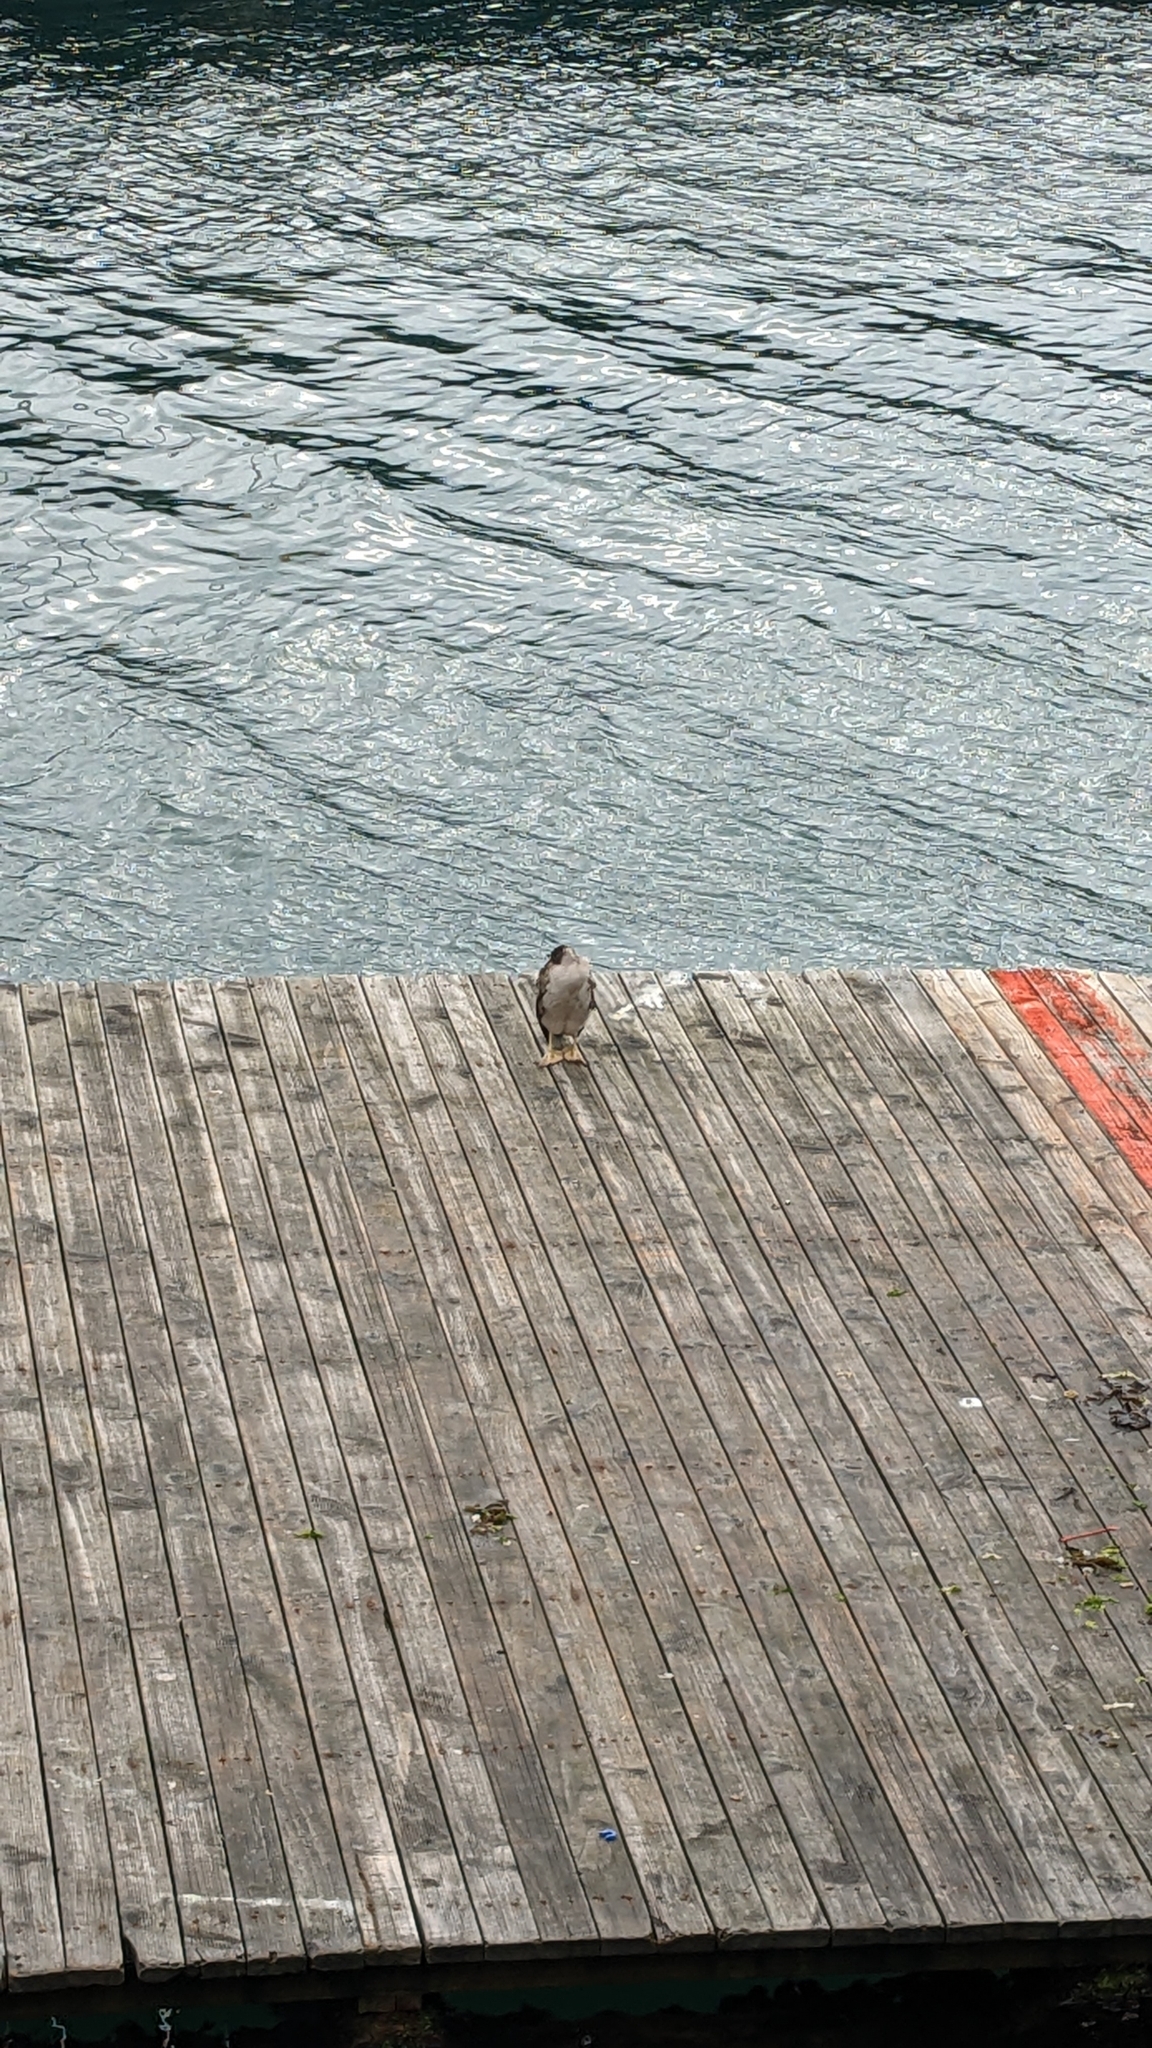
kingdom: Animalia
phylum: Chordata
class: Aves
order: Suliformes
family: Phalacrocoracidae
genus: Phalacrocorax
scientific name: Phalacrocorax punctatus
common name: Spotted shag
